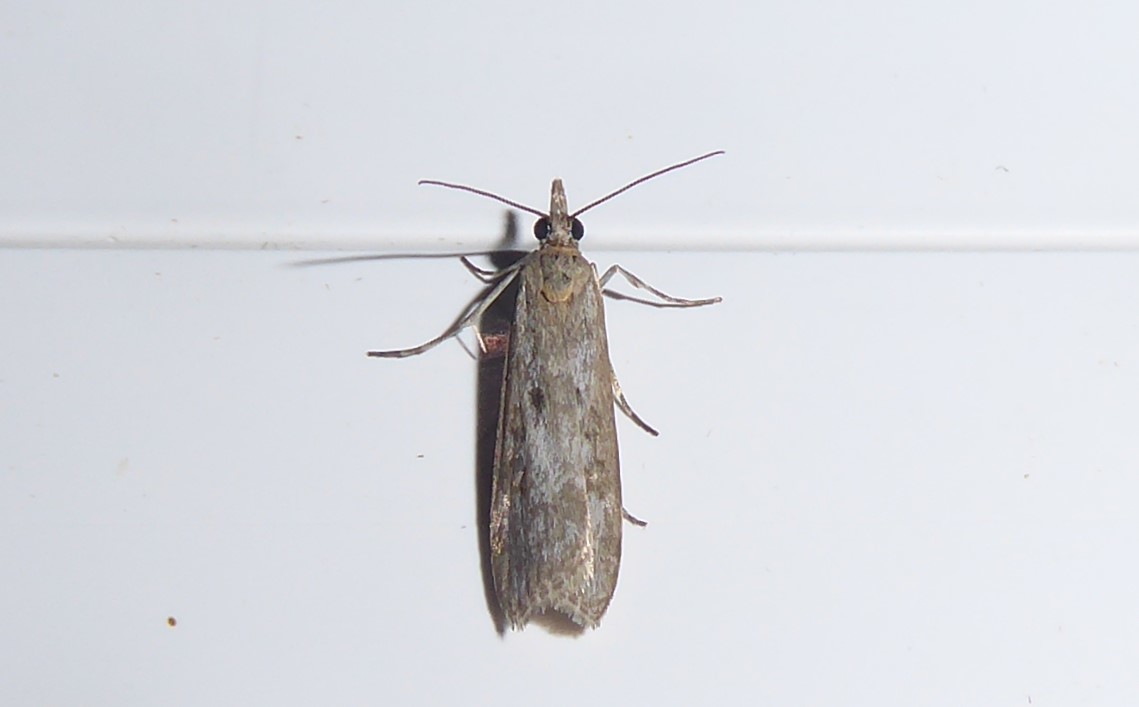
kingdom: Animalia
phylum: Arthropoda
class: Insecta
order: Lepidoptera
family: Crambidae
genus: Eudonia
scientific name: Eudonia leptalea
